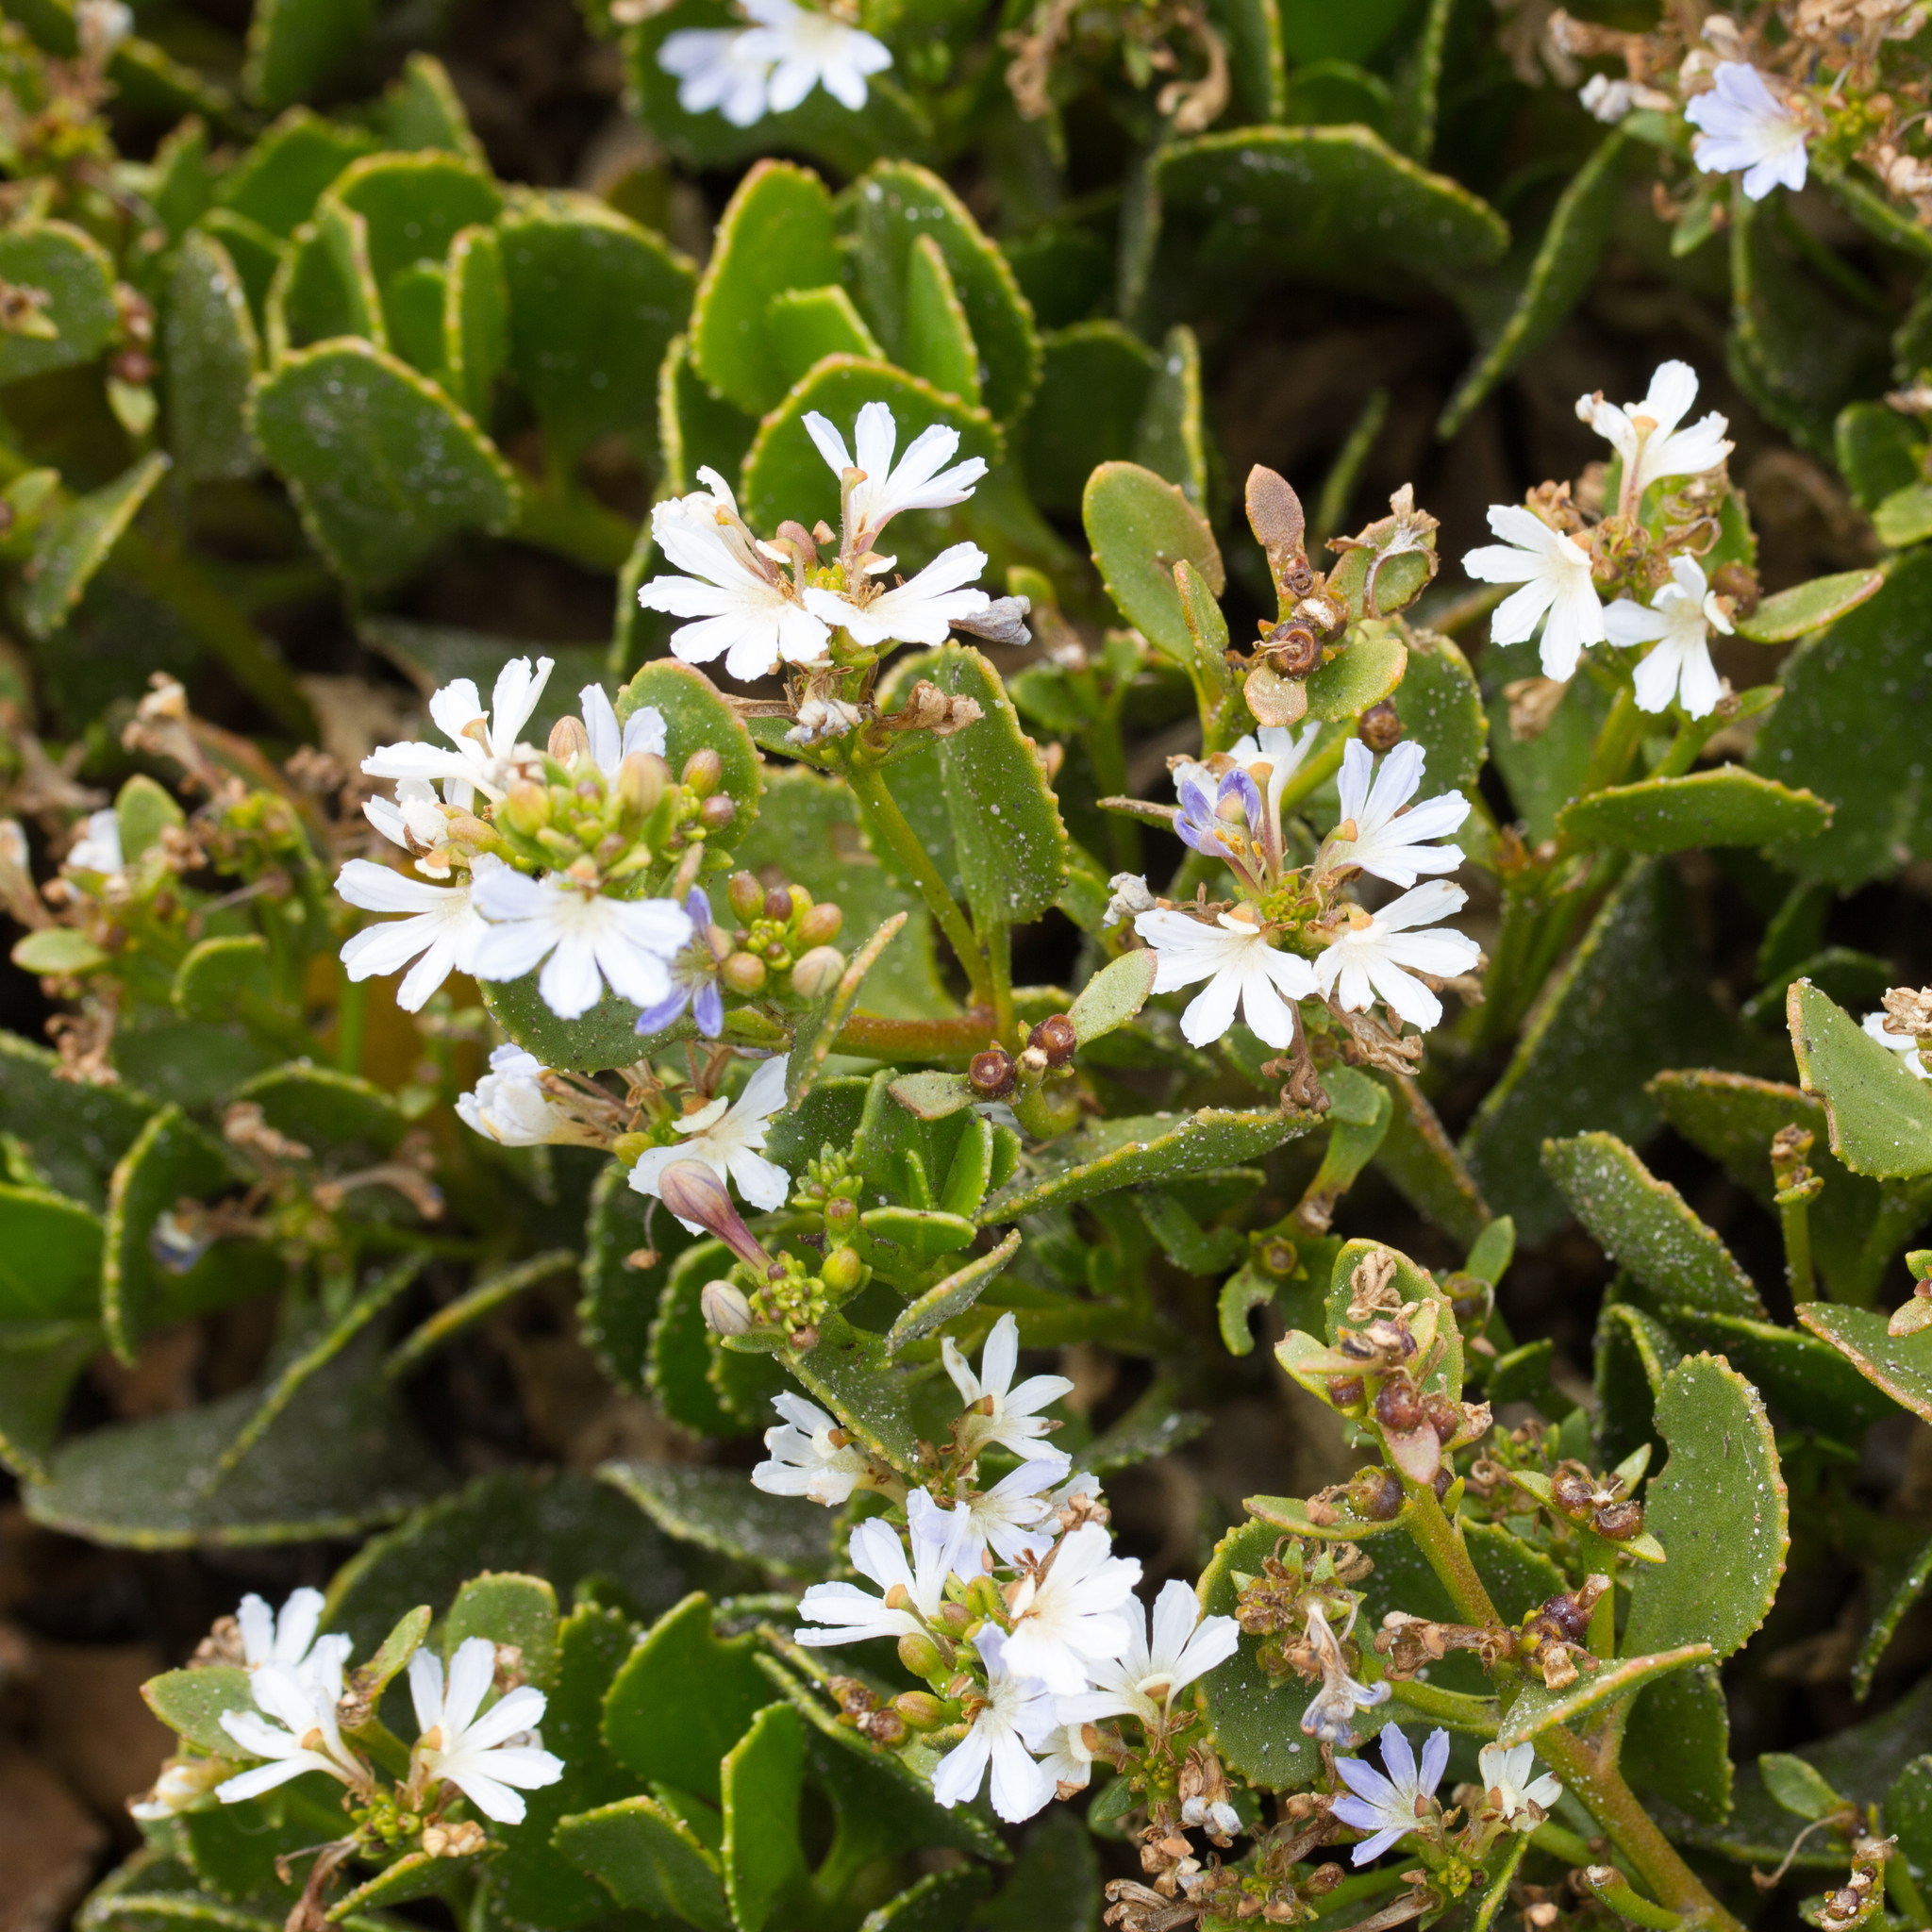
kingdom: Plantae
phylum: Tracheophyta
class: Magnoliopsida
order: Asterales
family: Goodeniaceae
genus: Scaevola
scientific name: Scaevola crassifolia
